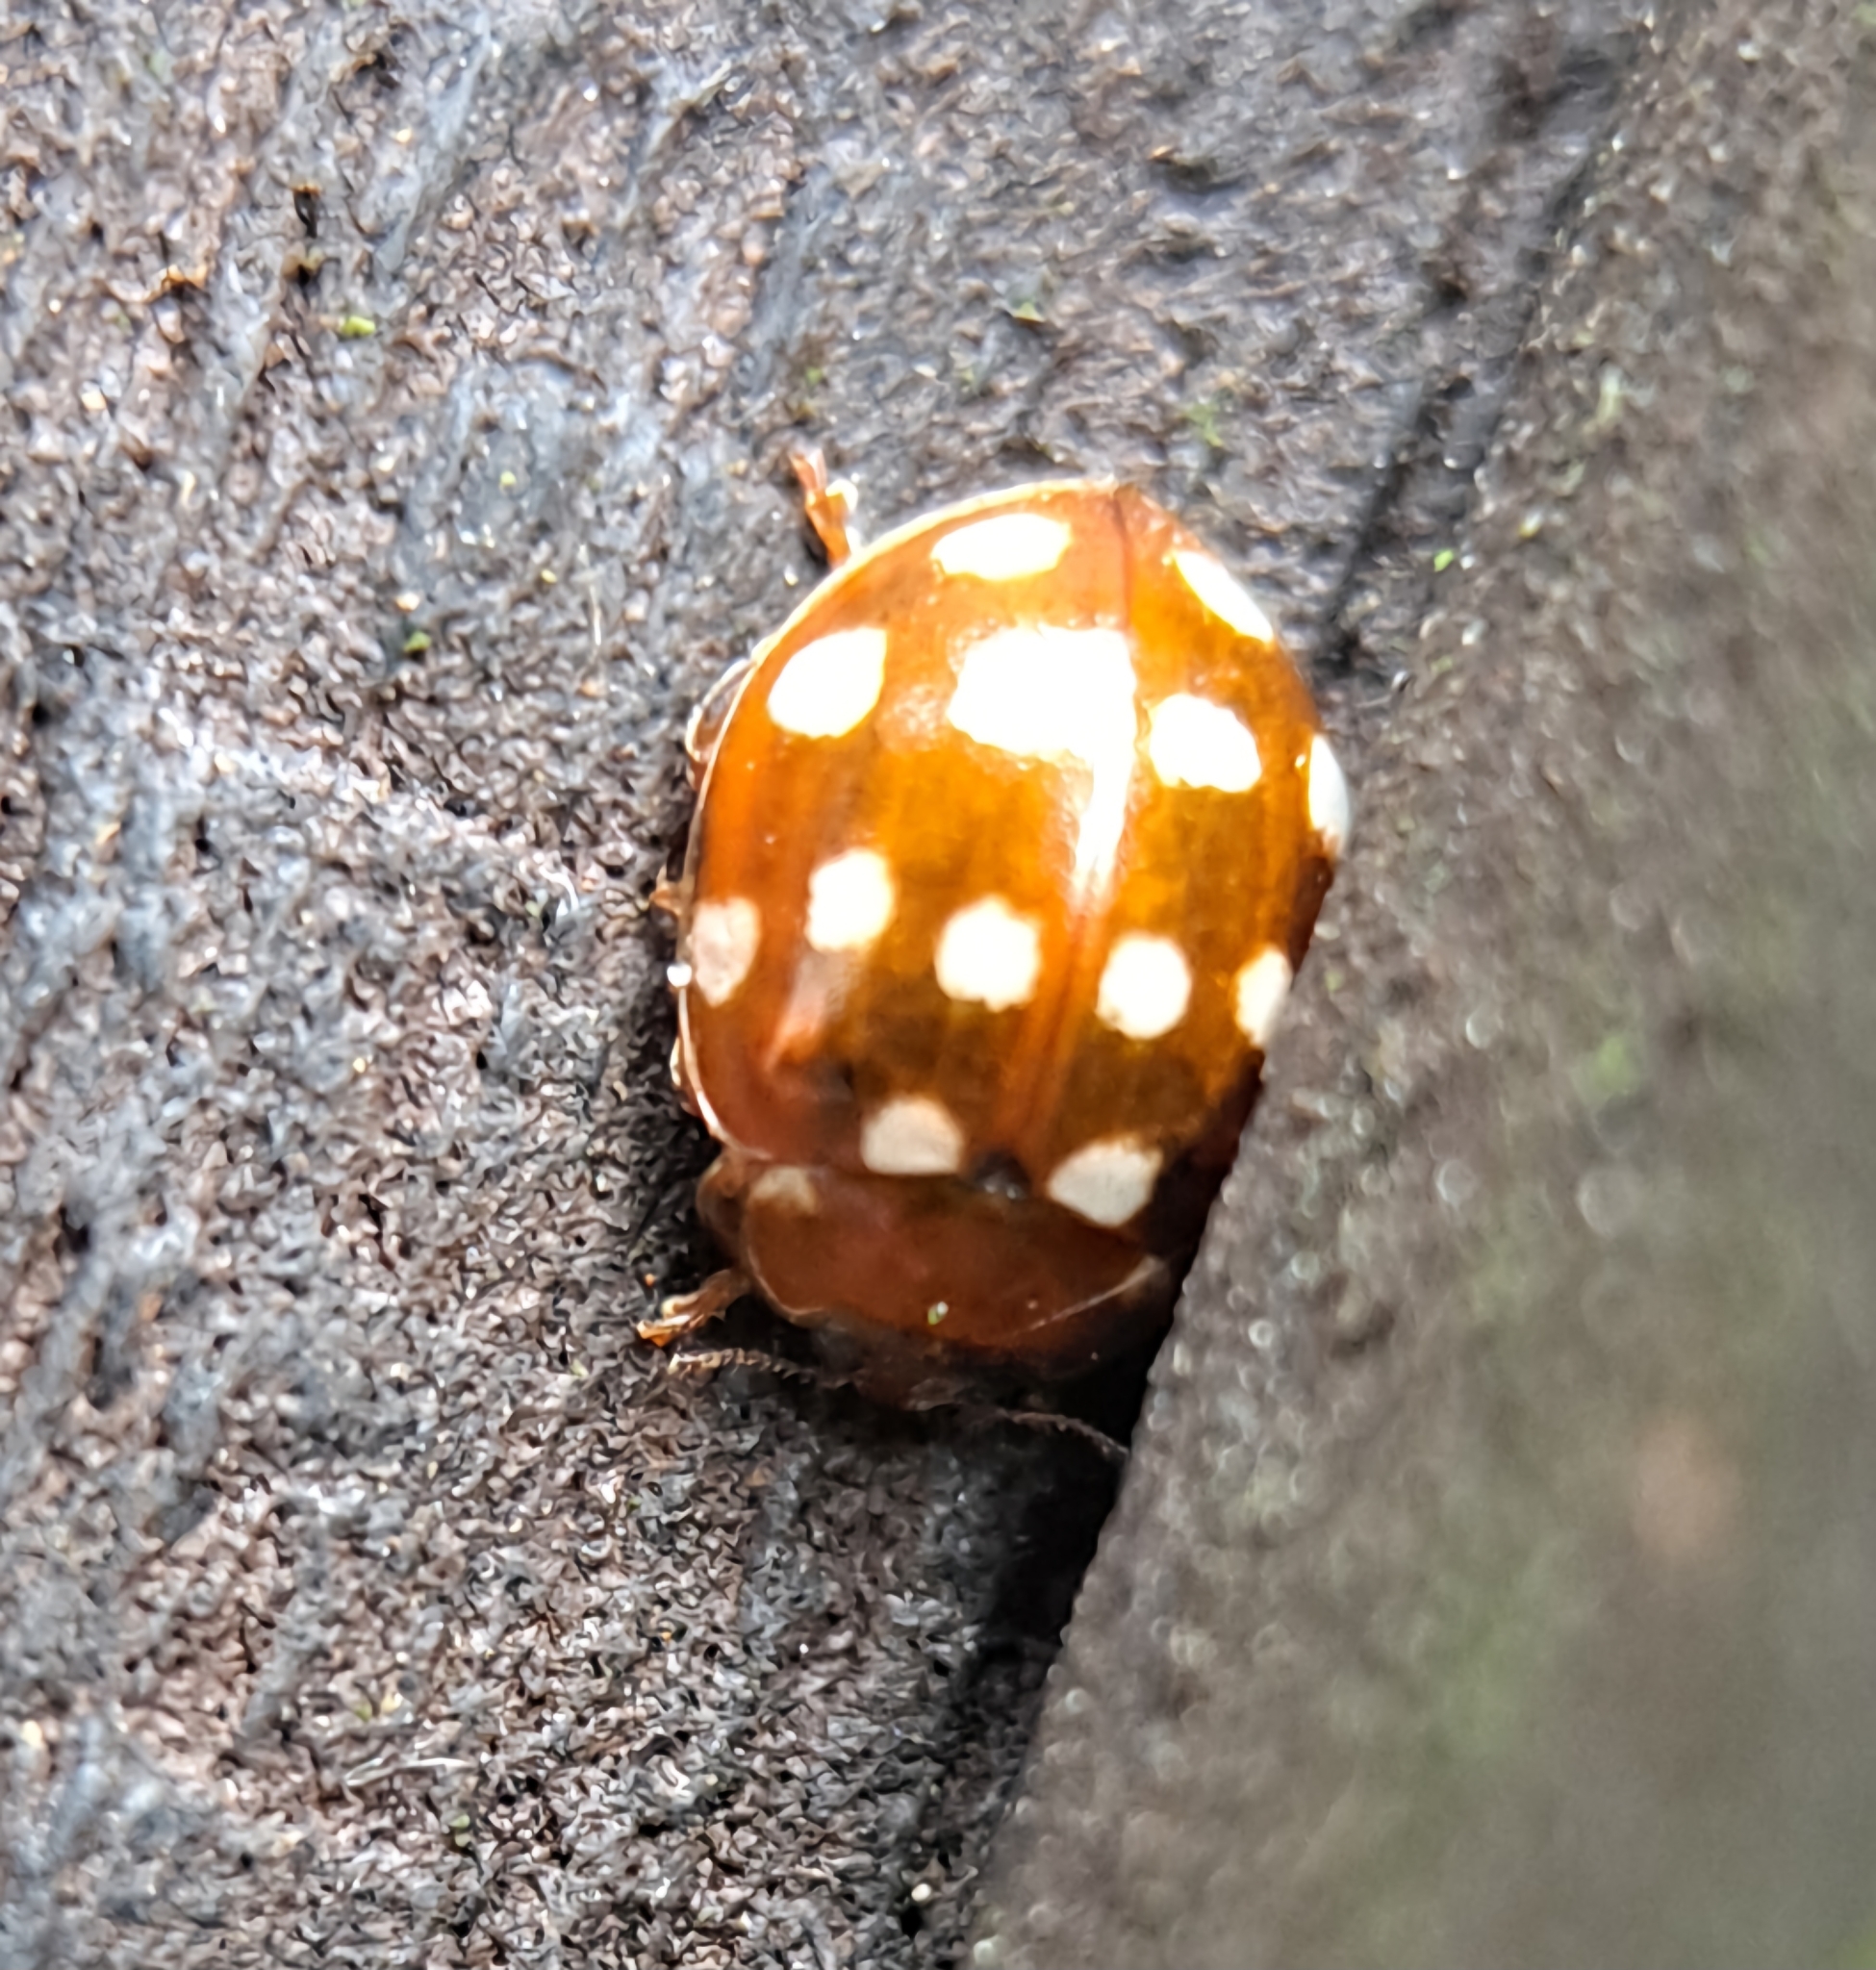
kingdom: Animalia
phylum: Arthropoda
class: Insecta
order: Coleoptera
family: Coccinellidae
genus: Calvia
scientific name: Calvia quatuordecimguttata
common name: Cream-spot ladybird
